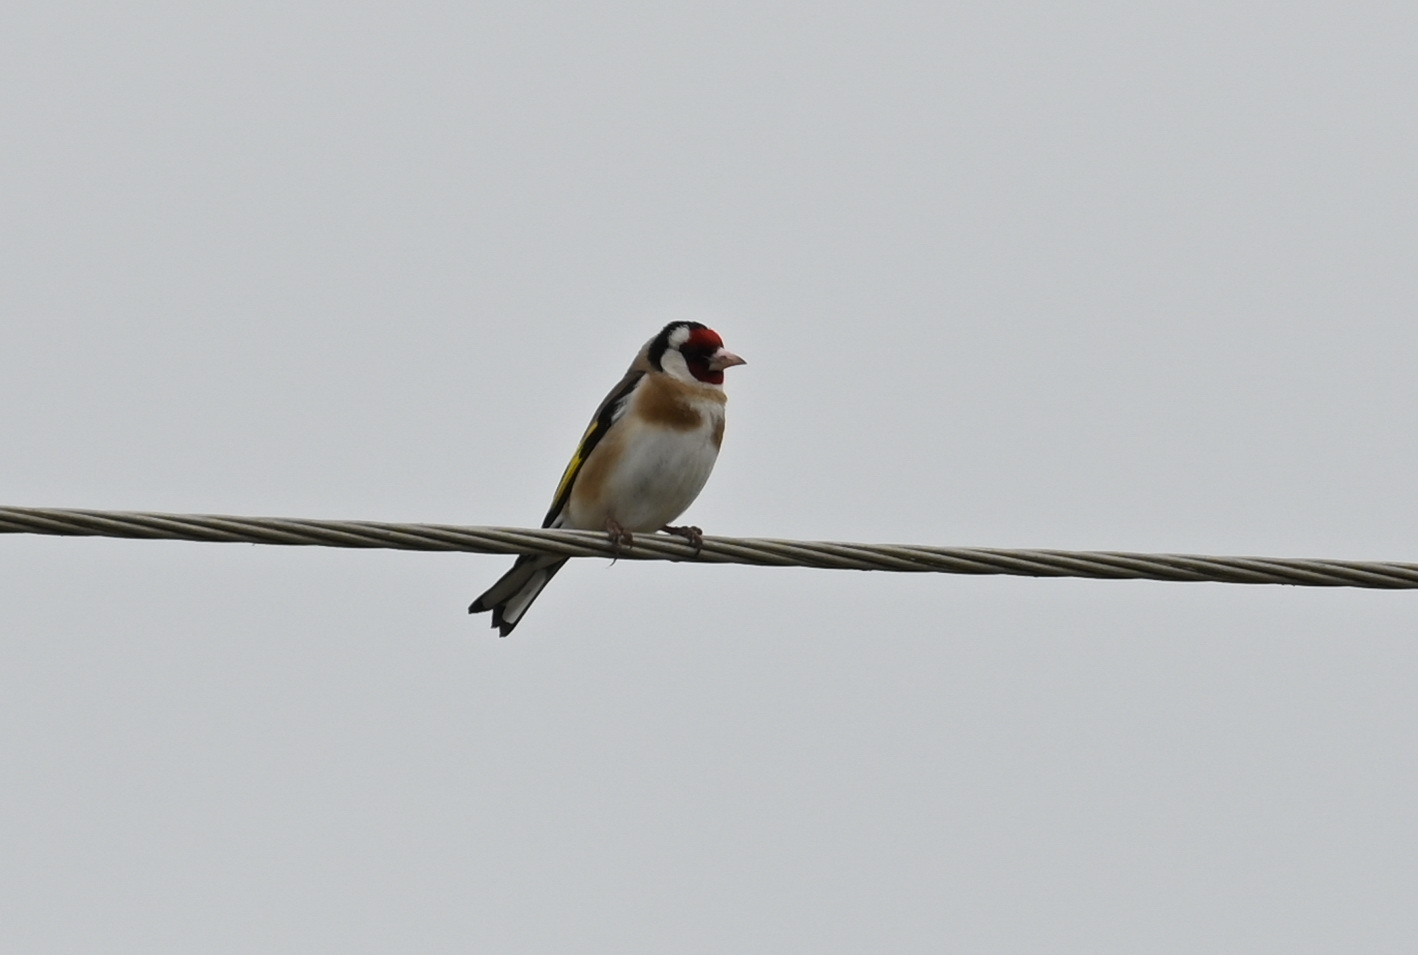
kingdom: Animalia
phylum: Chordata
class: Aves
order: Passeriformes
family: Fringillidae
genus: Carduelis
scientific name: Carduelis carduelis
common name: European goldfinch
